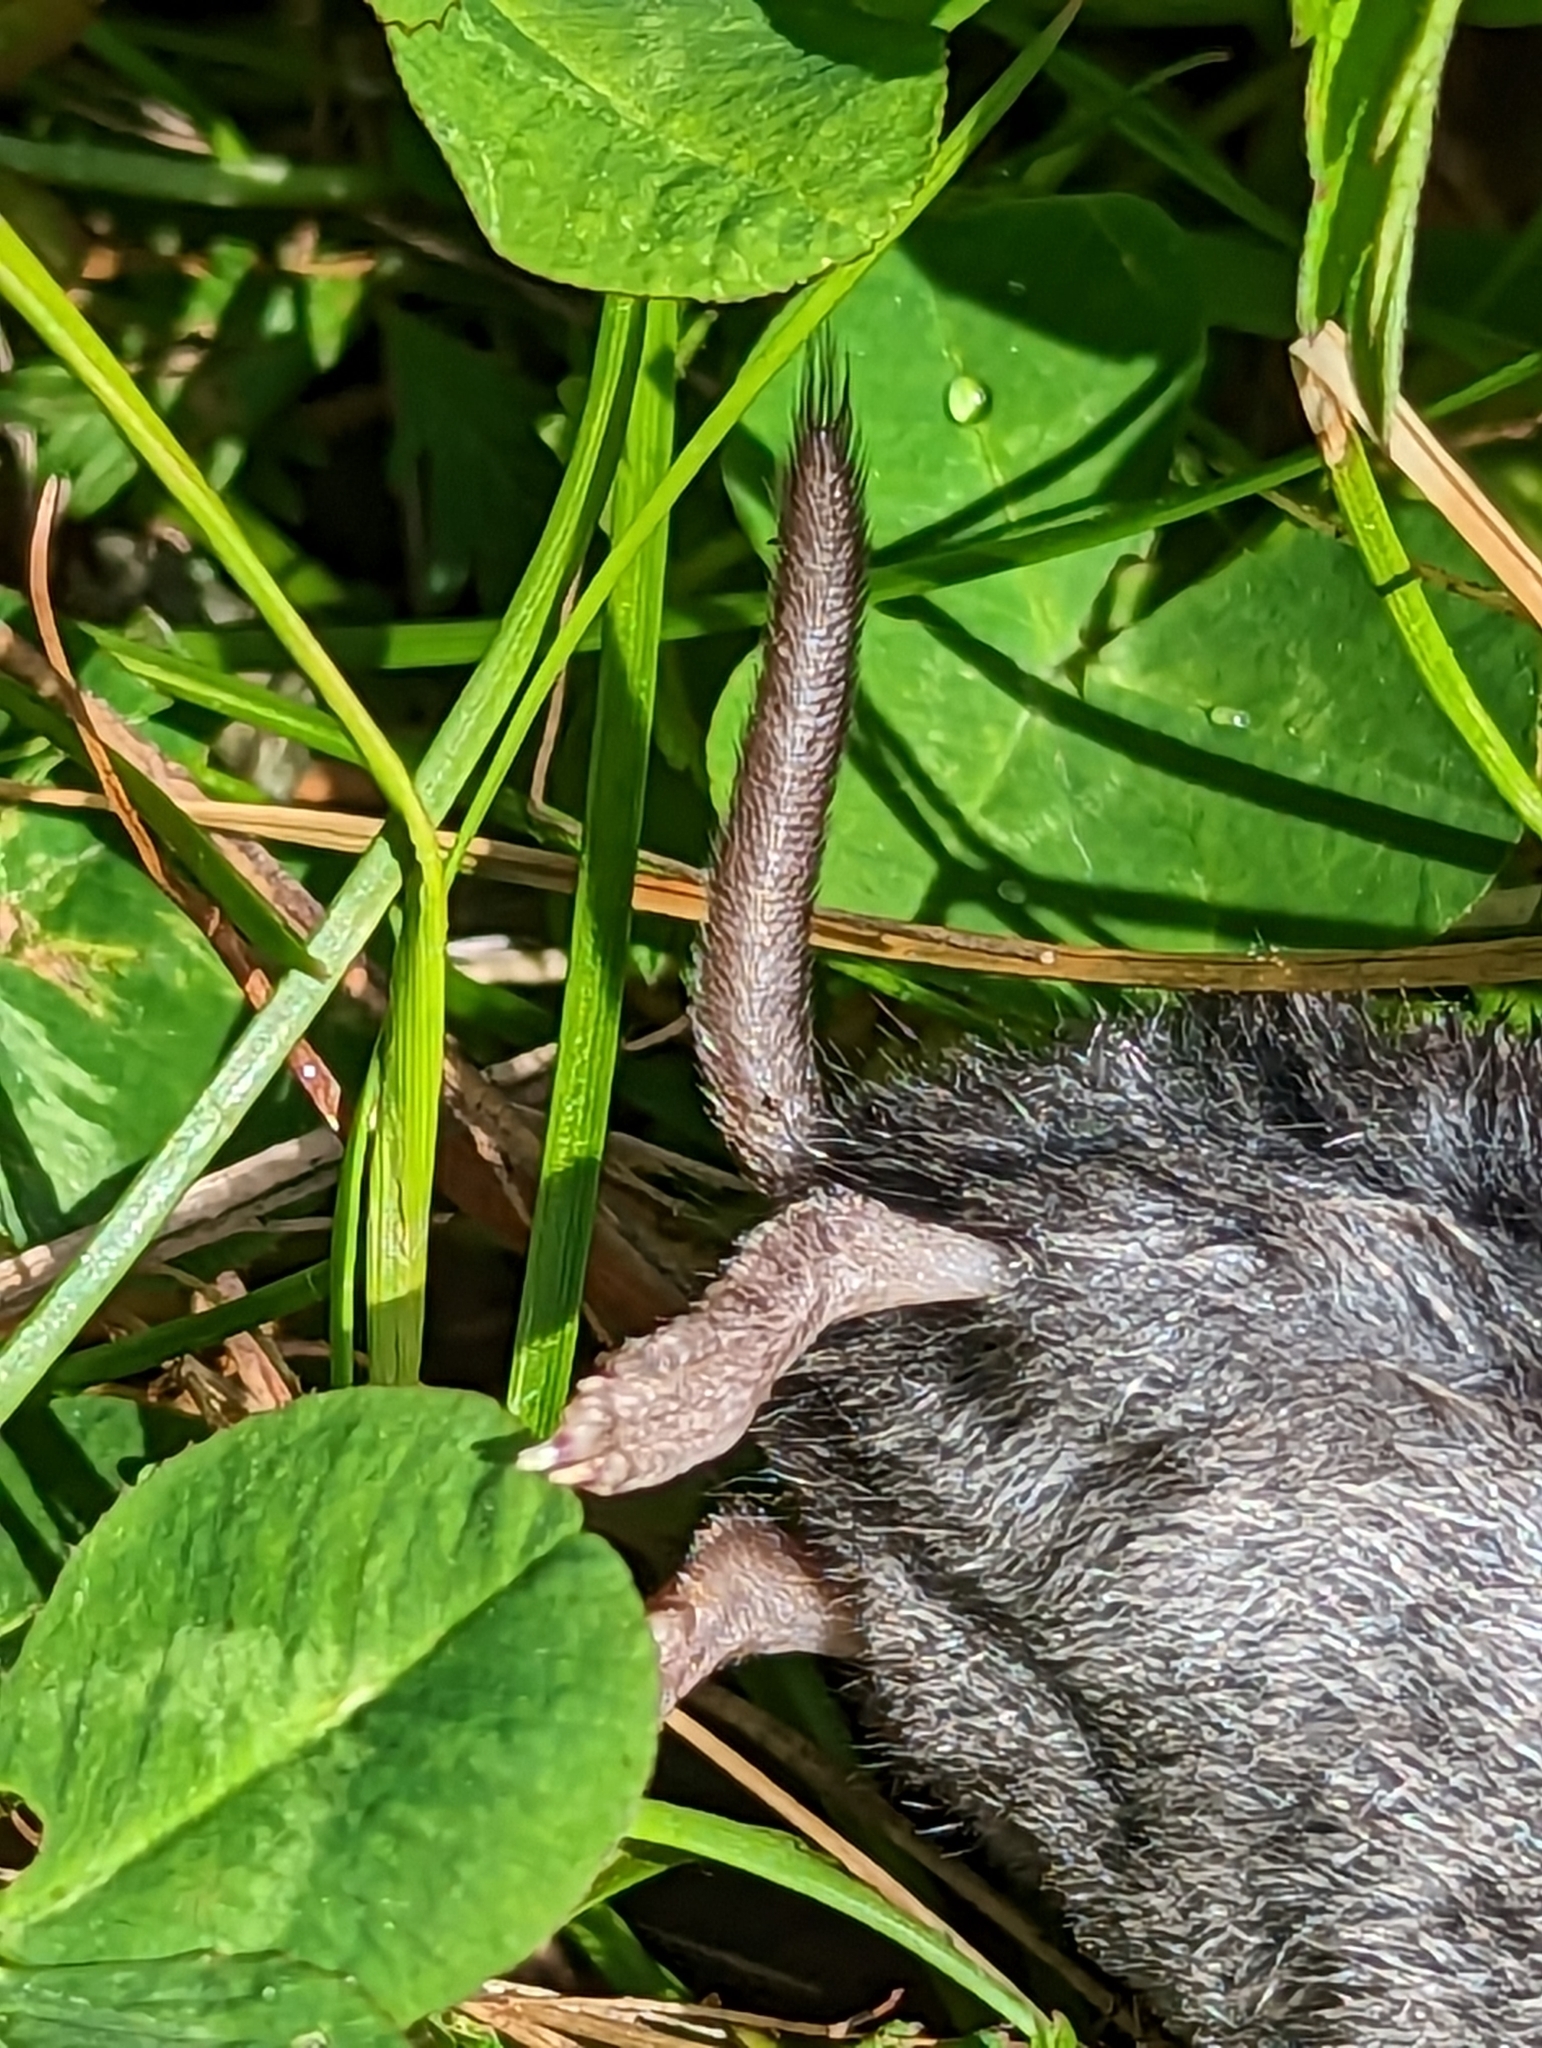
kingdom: Animalia
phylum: Chordata
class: Mammalia
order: Soricomorpha
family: Soricidae
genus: Blarina
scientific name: Blarina brevicauda
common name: Northern short-tailed shrew
